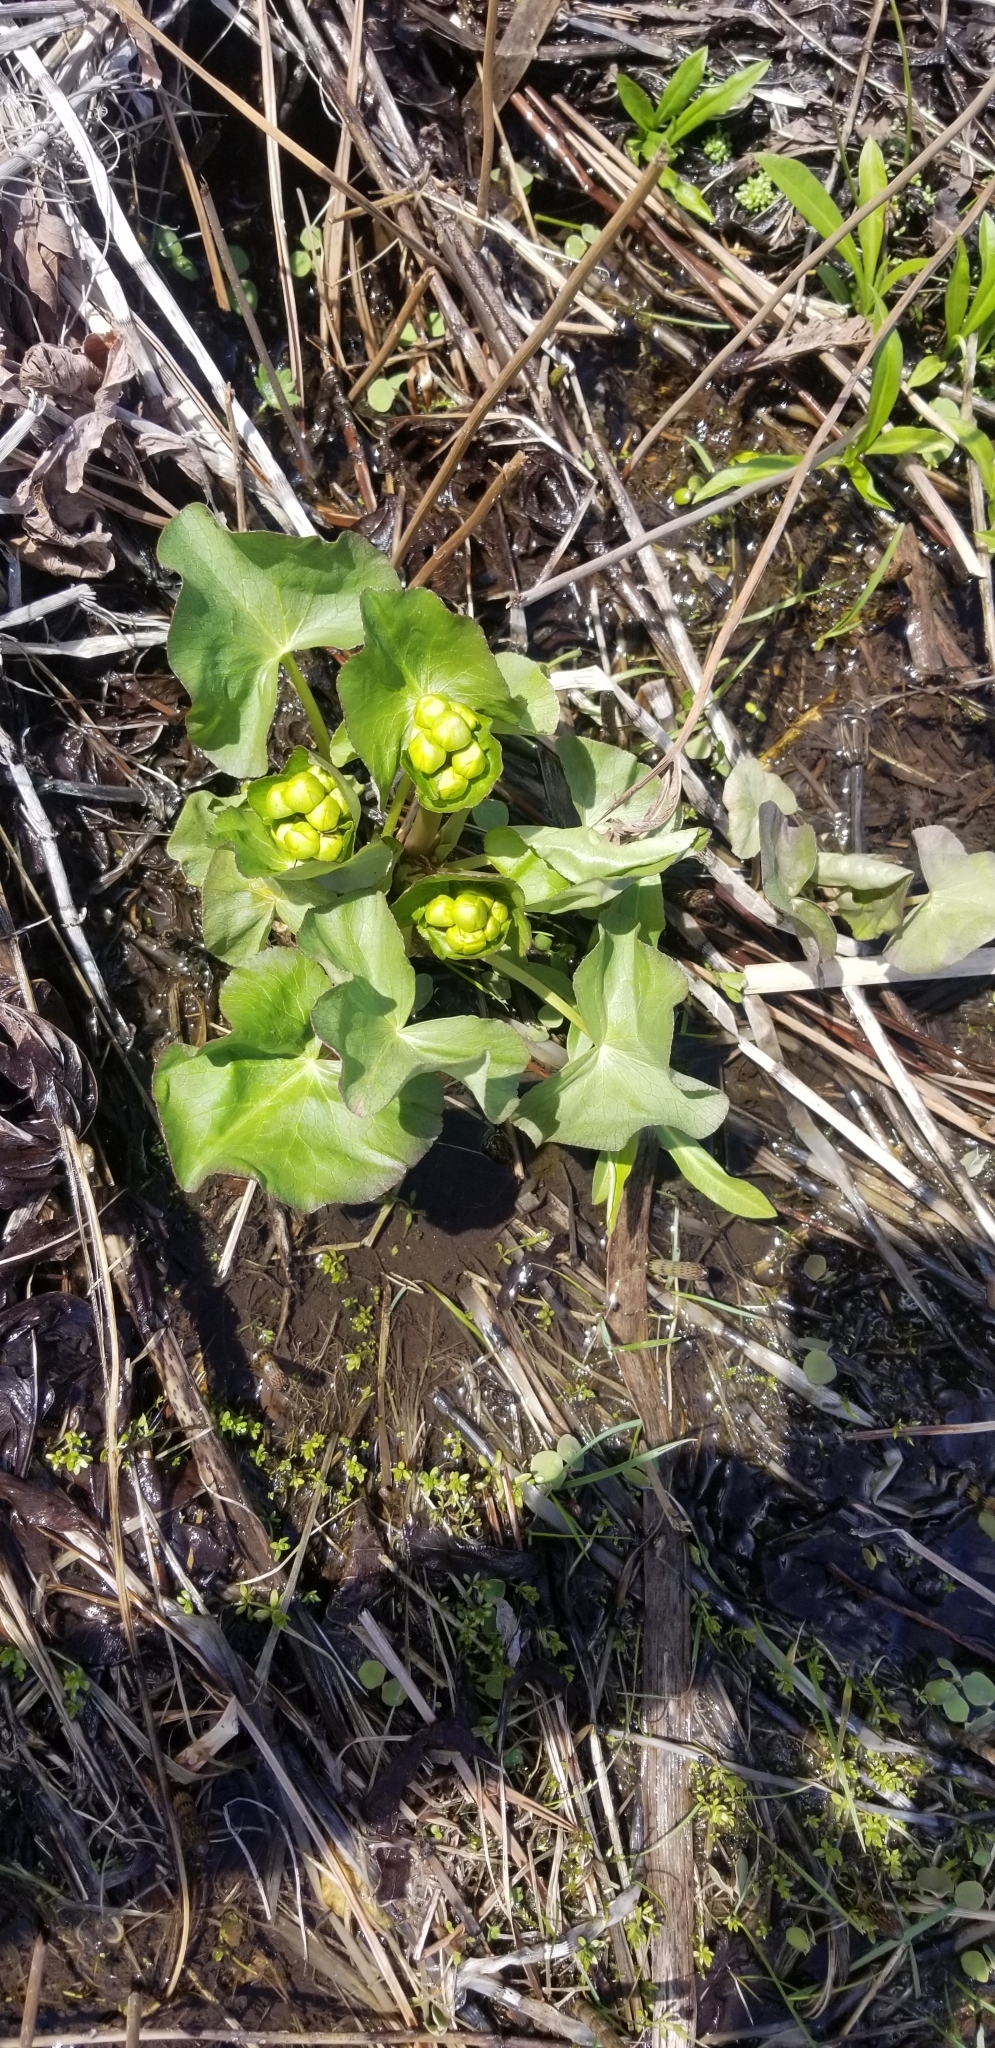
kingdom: Plantae
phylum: Tracheophyta
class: Magnoliopsida
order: Ranunculales
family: Ranunculaceae
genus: Caltha
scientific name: Caltha palustris
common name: Marsh marigold
